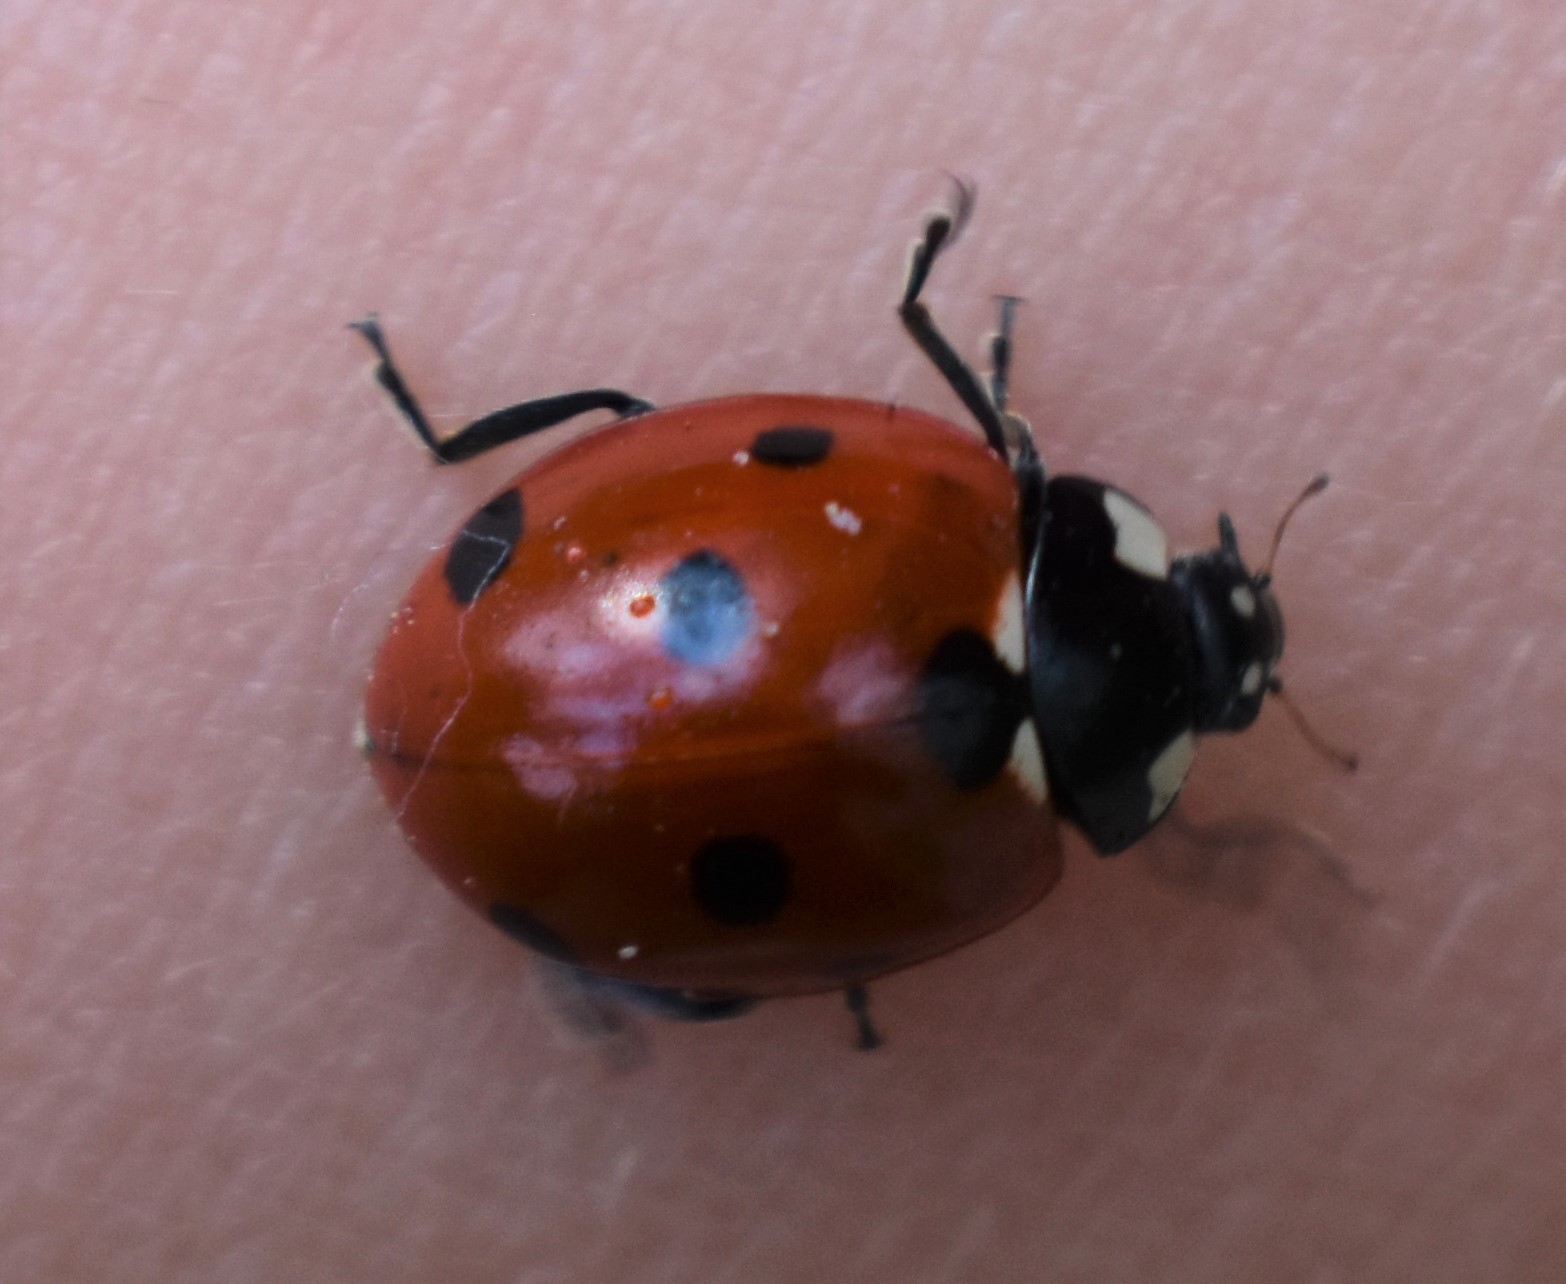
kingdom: Animalia
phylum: Arthropoda
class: Insecta
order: Coleoptera
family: Coccinellidae
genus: Coccinella
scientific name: Coccinella septempunctata
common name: Sevenspotted lady beetle
